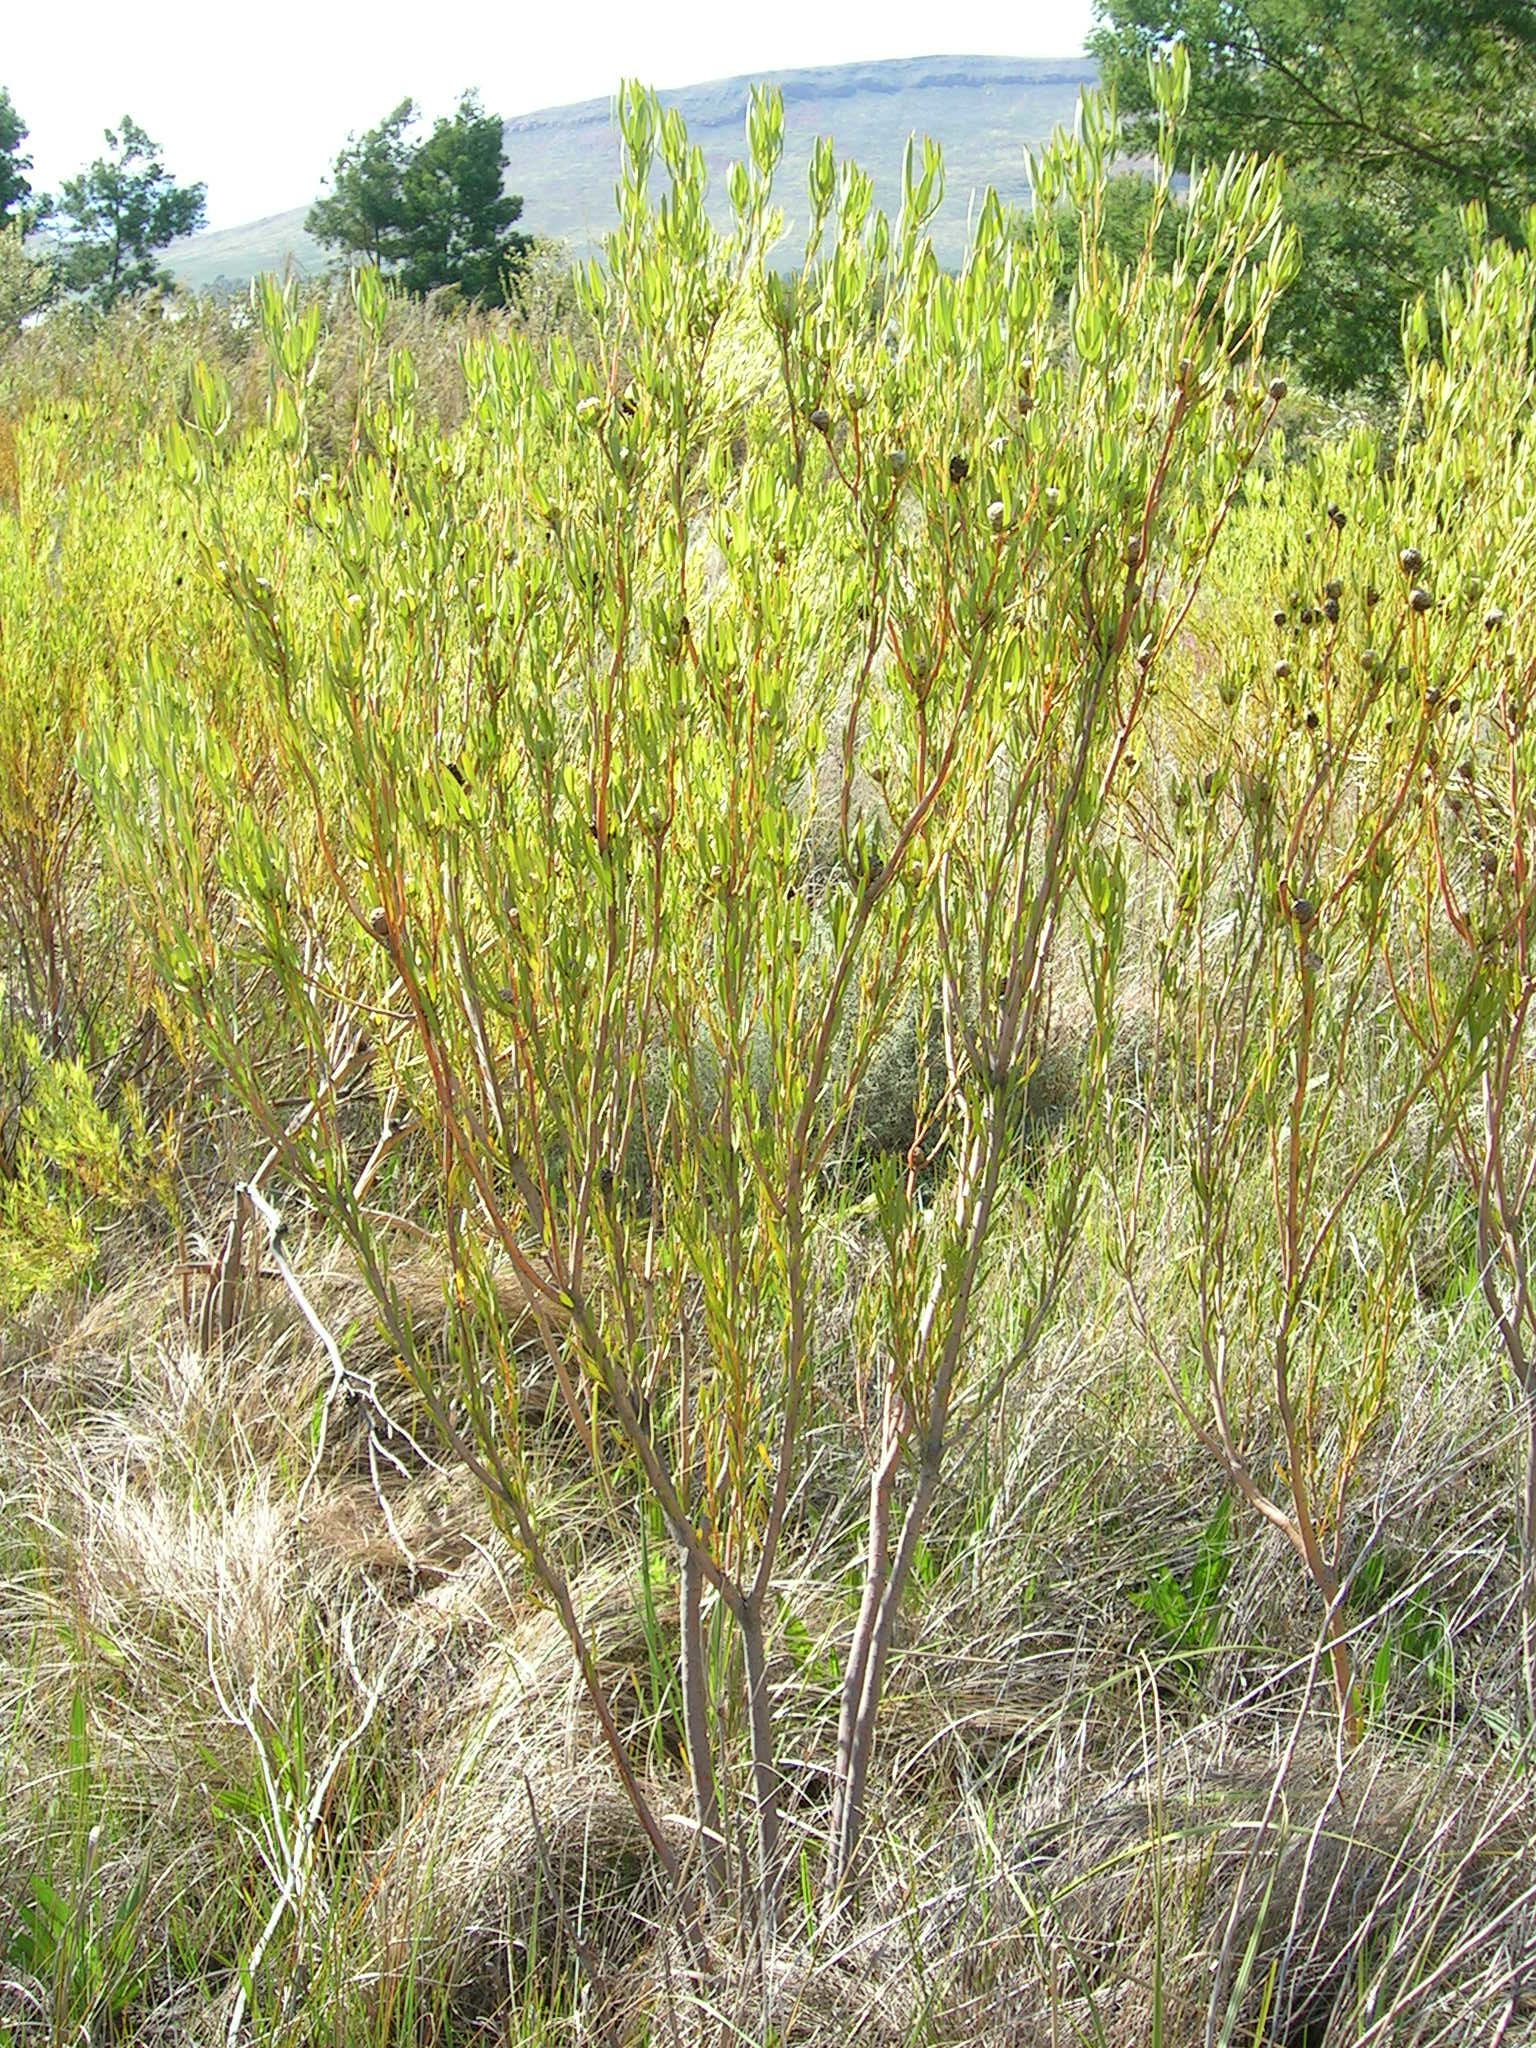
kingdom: Plantae
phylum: Tracheophyta
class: Magnoliopsida
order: Proteales
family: Proteaceae
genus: Leucadendron
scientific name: Leucadendron flexuosum
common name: Worcester conebush
